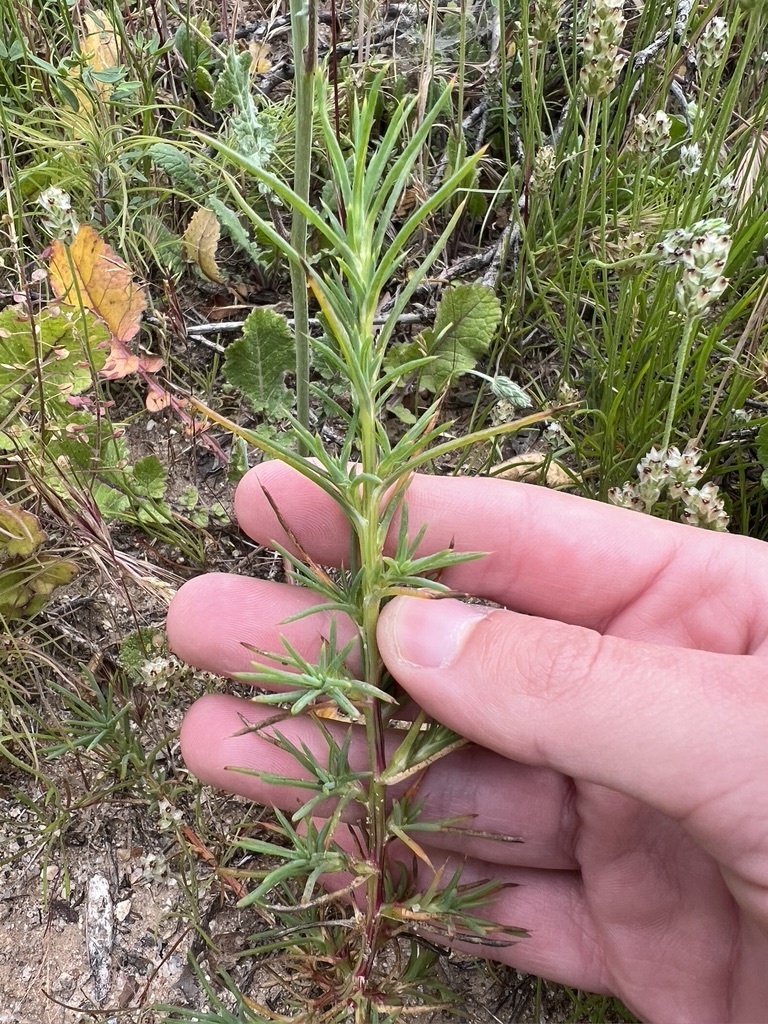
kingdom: Plantae
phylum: Tracheophyta
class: Magnoliopsida
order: Caryophyllales
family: Amaranthaceae
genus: Salsola
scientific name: Salsola australis
